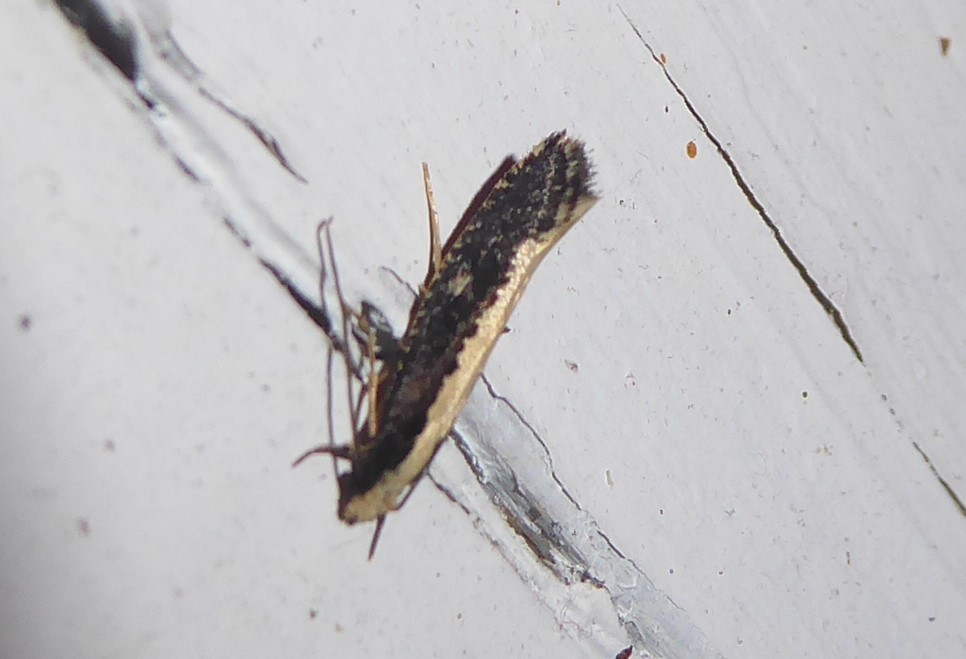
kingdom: Animalia
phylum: Arthropoda
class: Insecta
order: Lepidoptera
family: Tineidae
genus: Monopis
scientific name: Monopis ethelella
